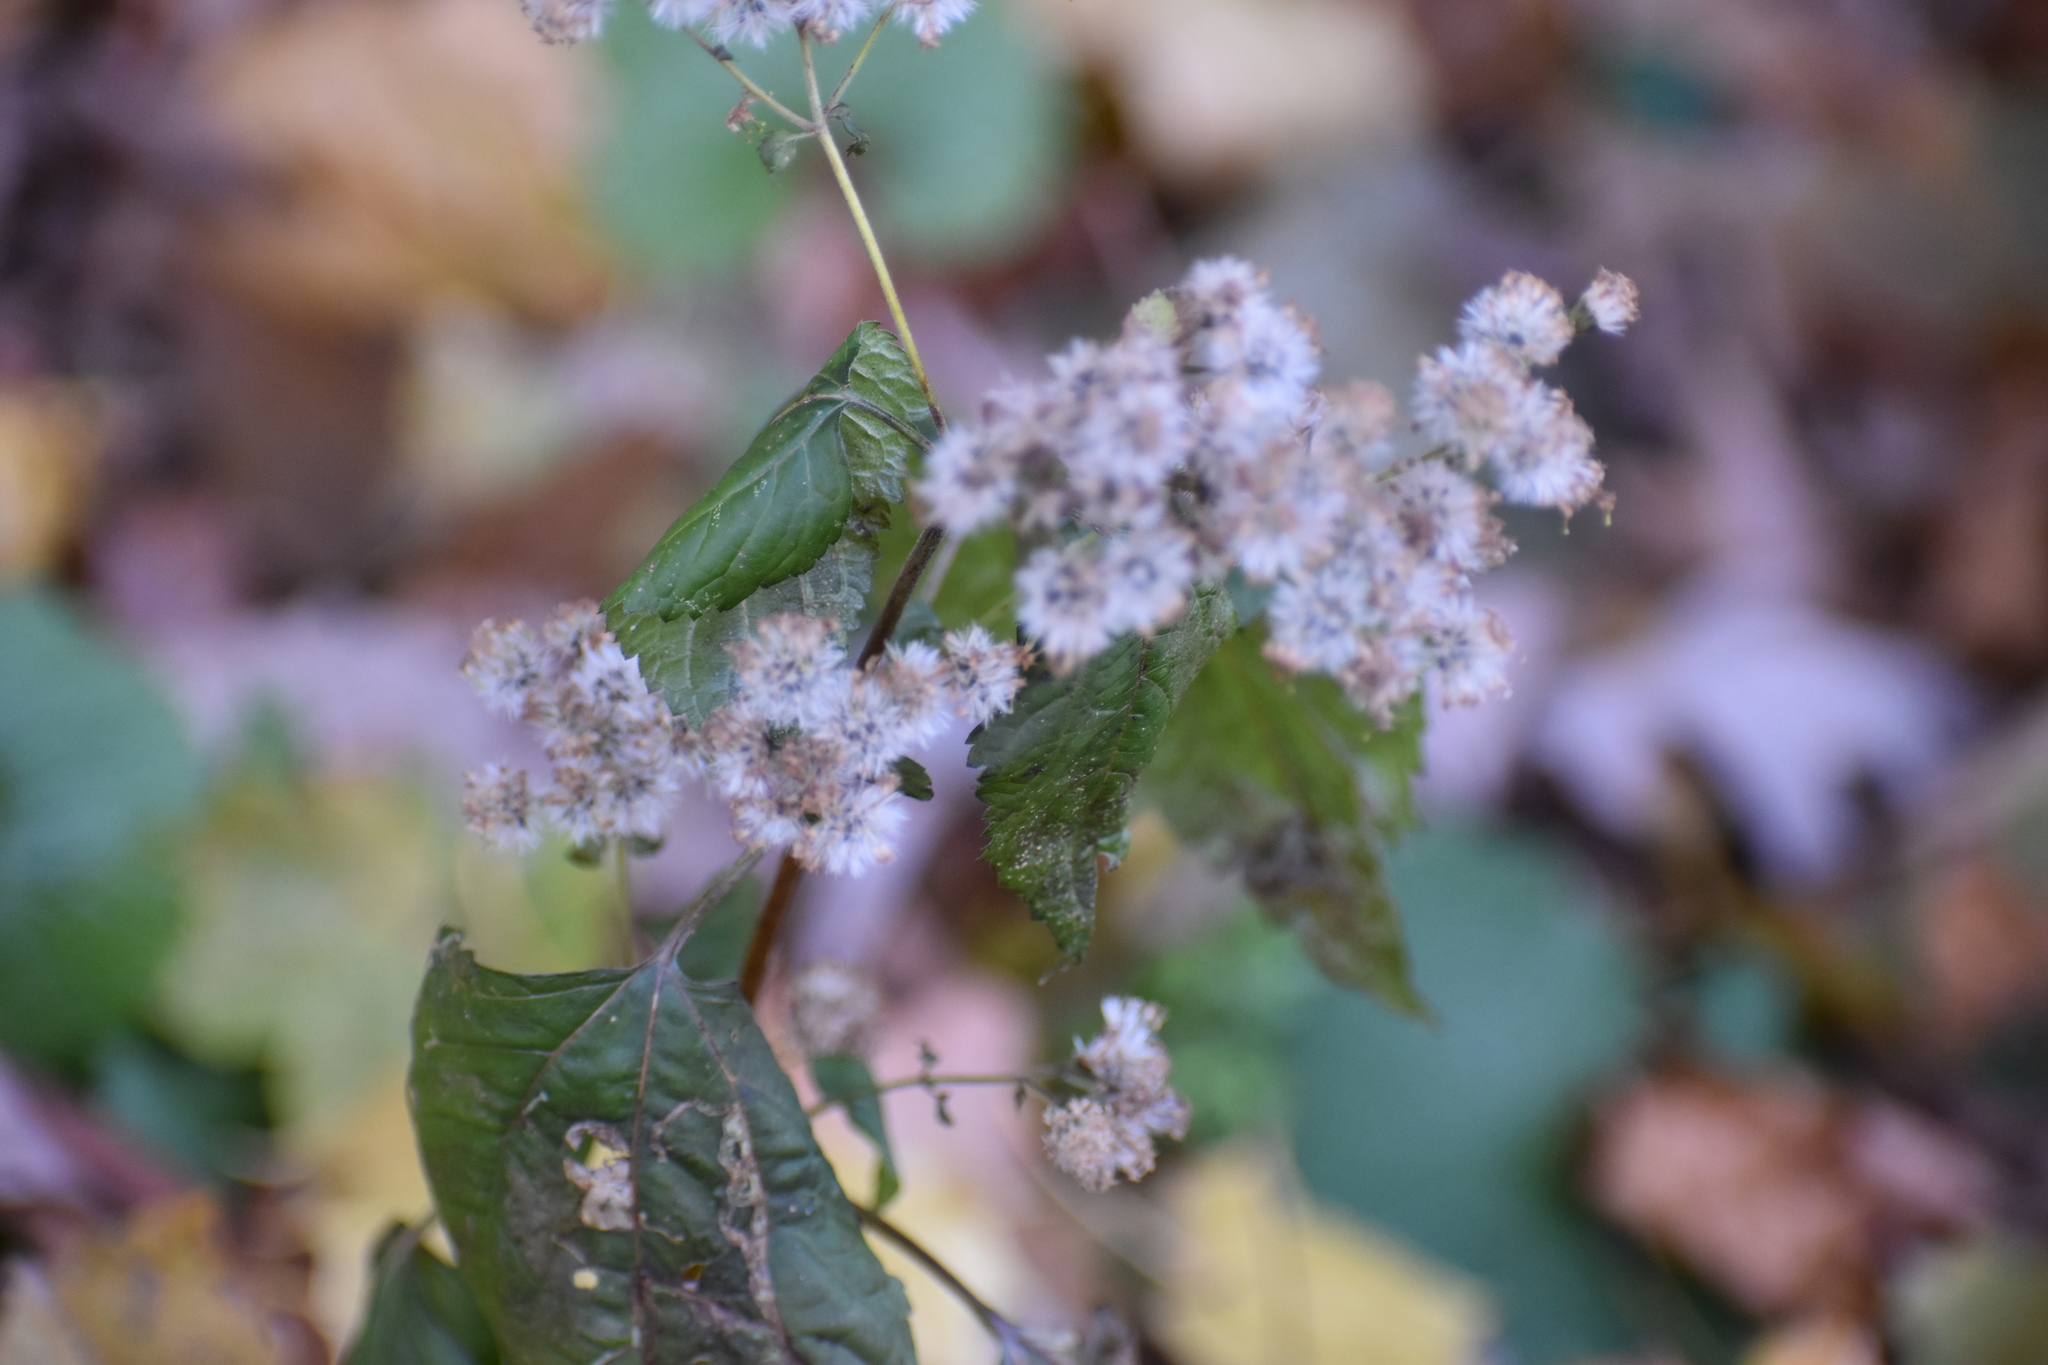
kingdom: Plantae
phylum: Tracheophyta
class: Magnoliopsida
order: Asterales
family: Asteraceae
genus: Ageratina
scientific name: Ageratina altissima
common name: White snakeroot
